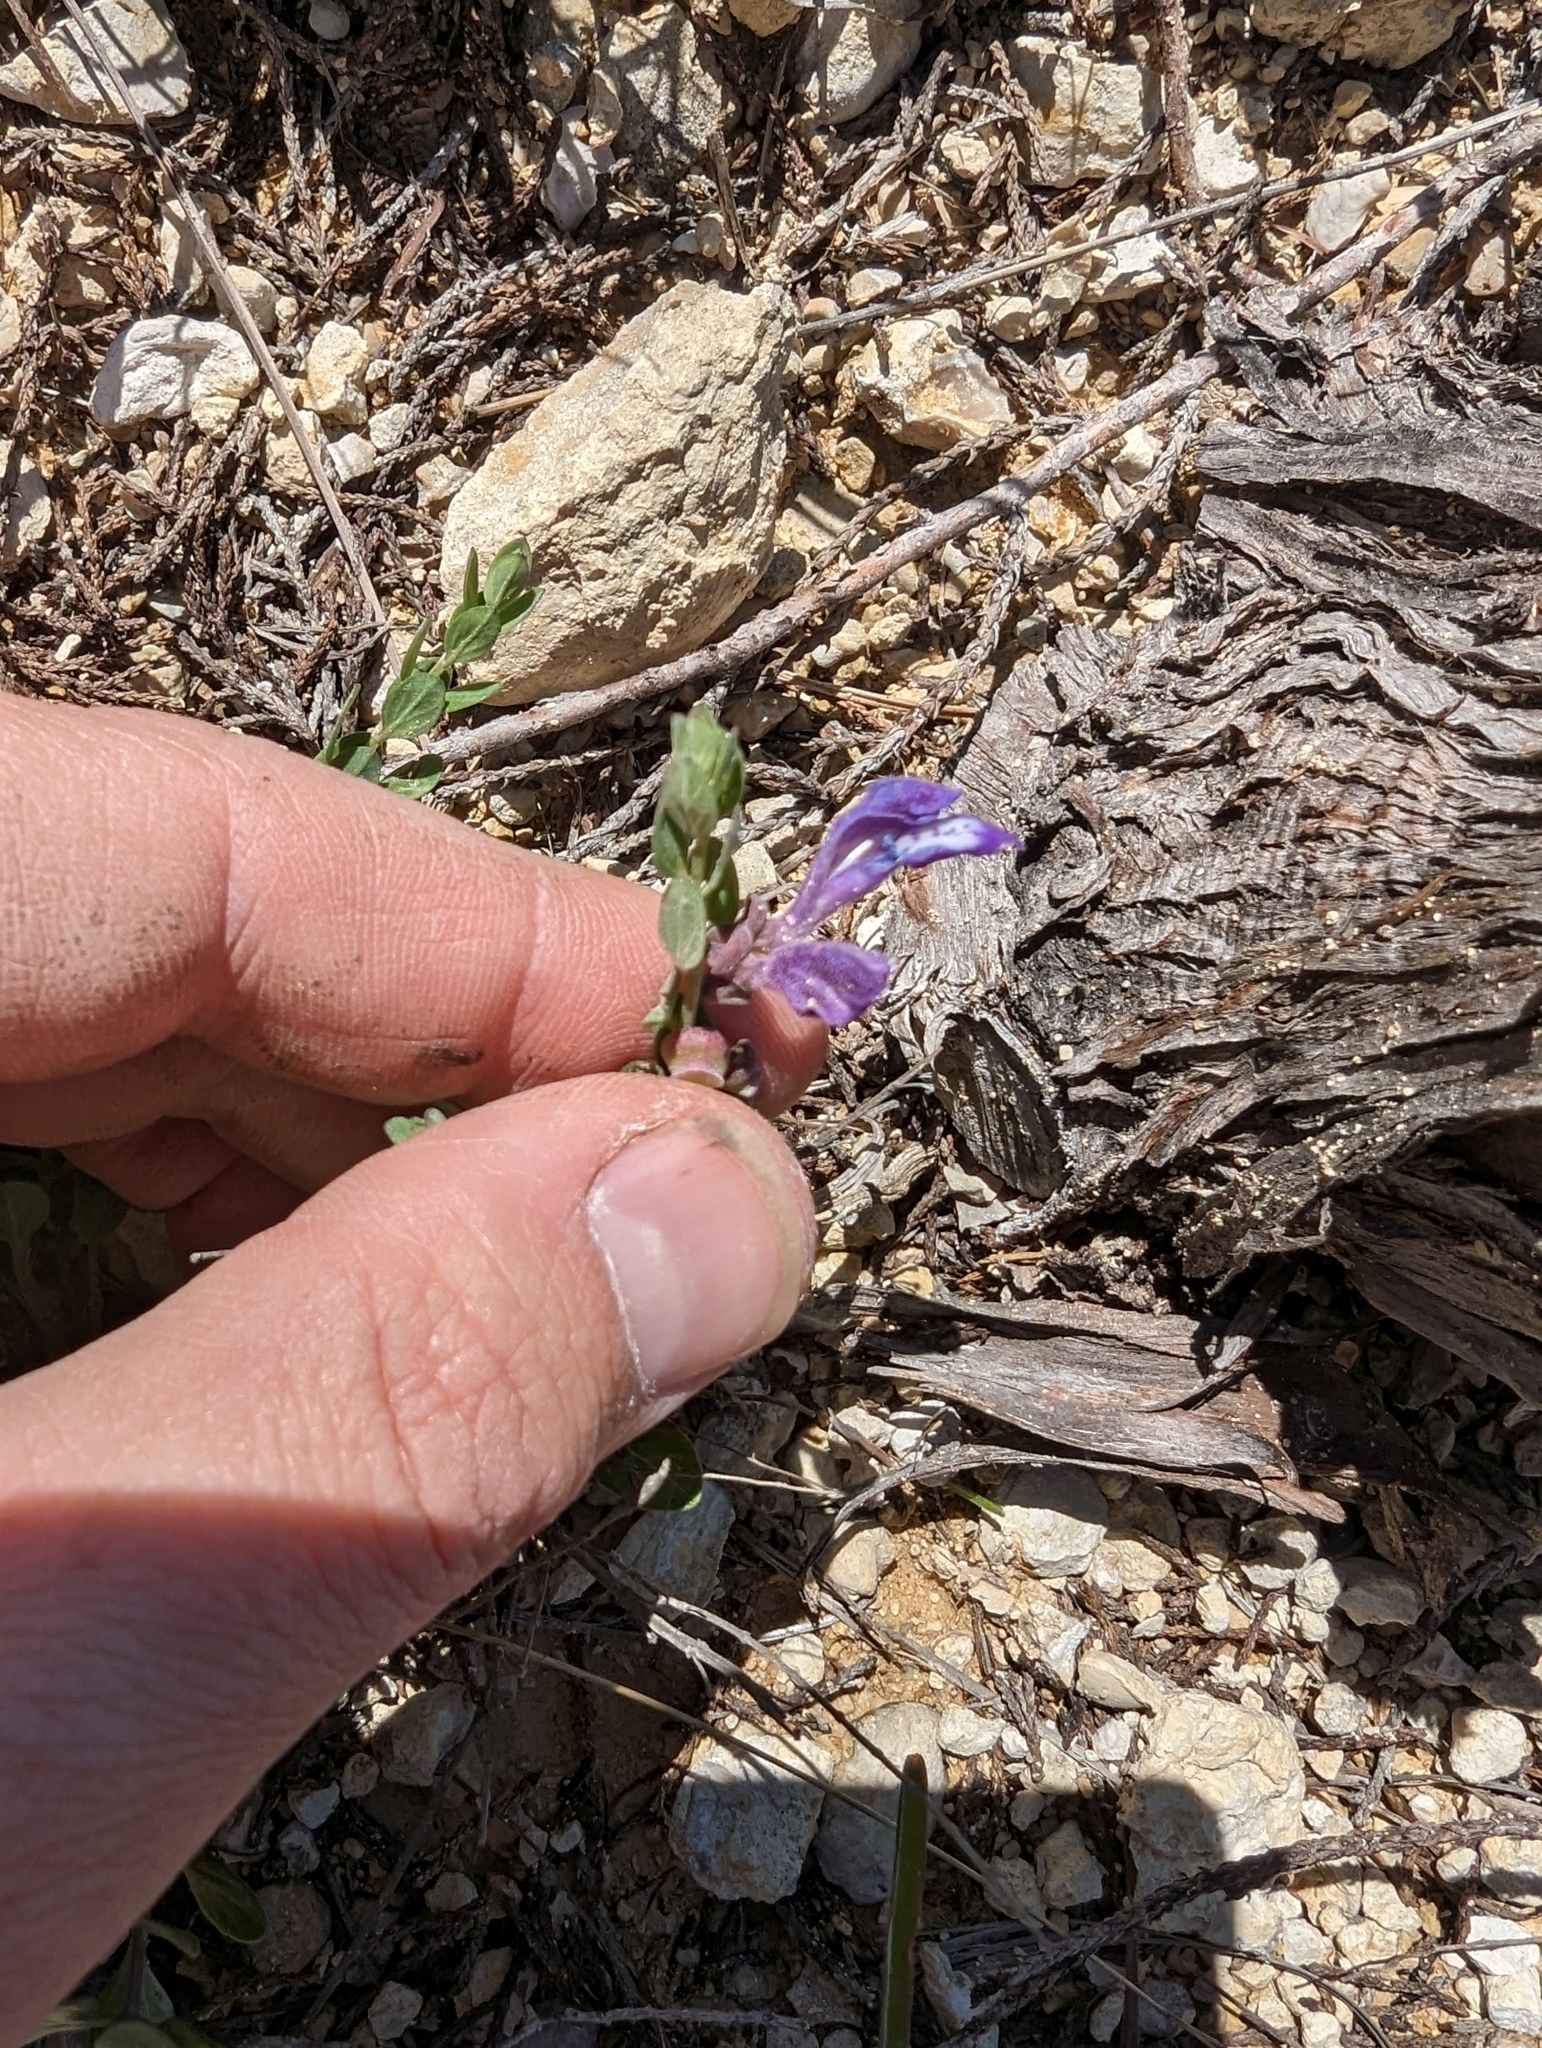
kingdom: Plantae
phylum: Tracheophyta
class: Magnoliopsida
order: Lamiales
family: Lamiaceae
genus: Scutellaria
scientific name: Scutellaria wrightii
